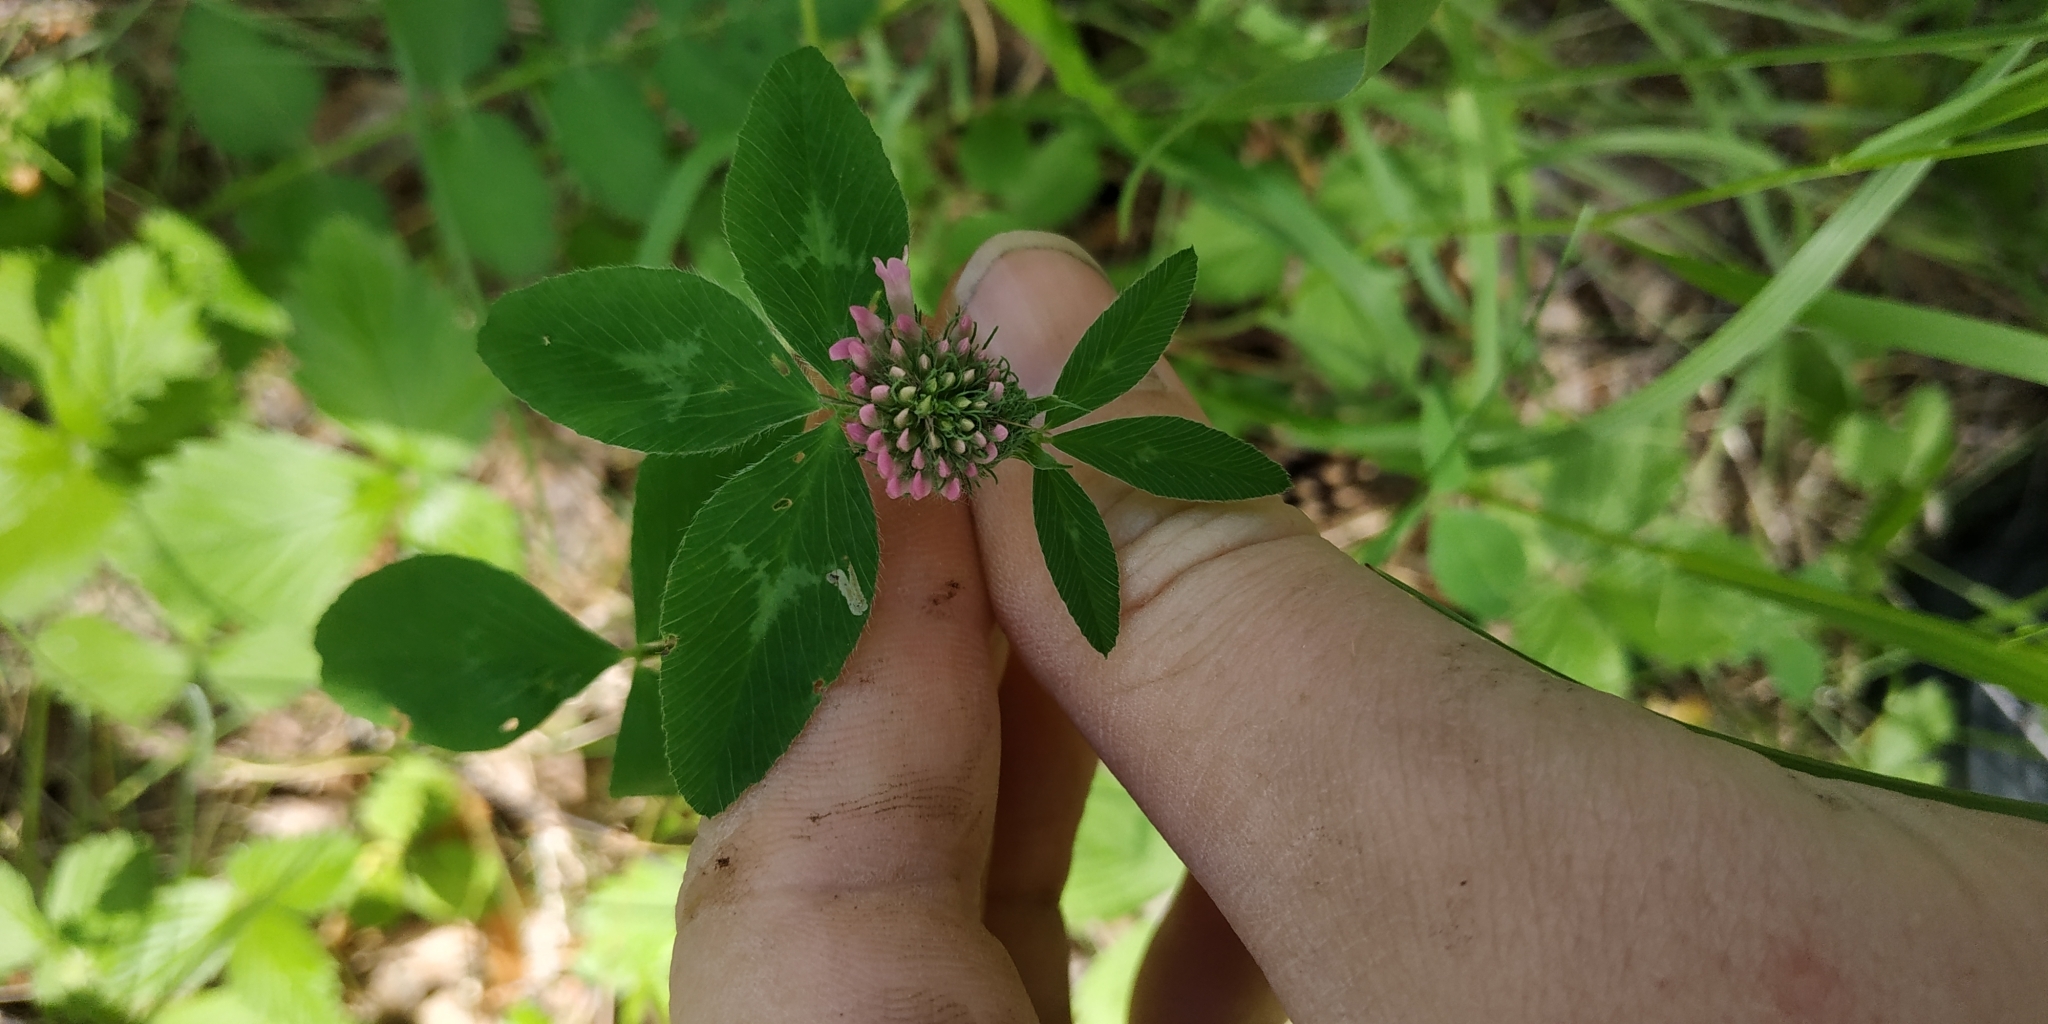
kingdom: Plantae
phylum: Tracheophyta
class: Magnoliopsida
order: Fabales
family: Fabaceae
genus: Trifolium
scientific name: Trifolium pratense
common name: Red clover
